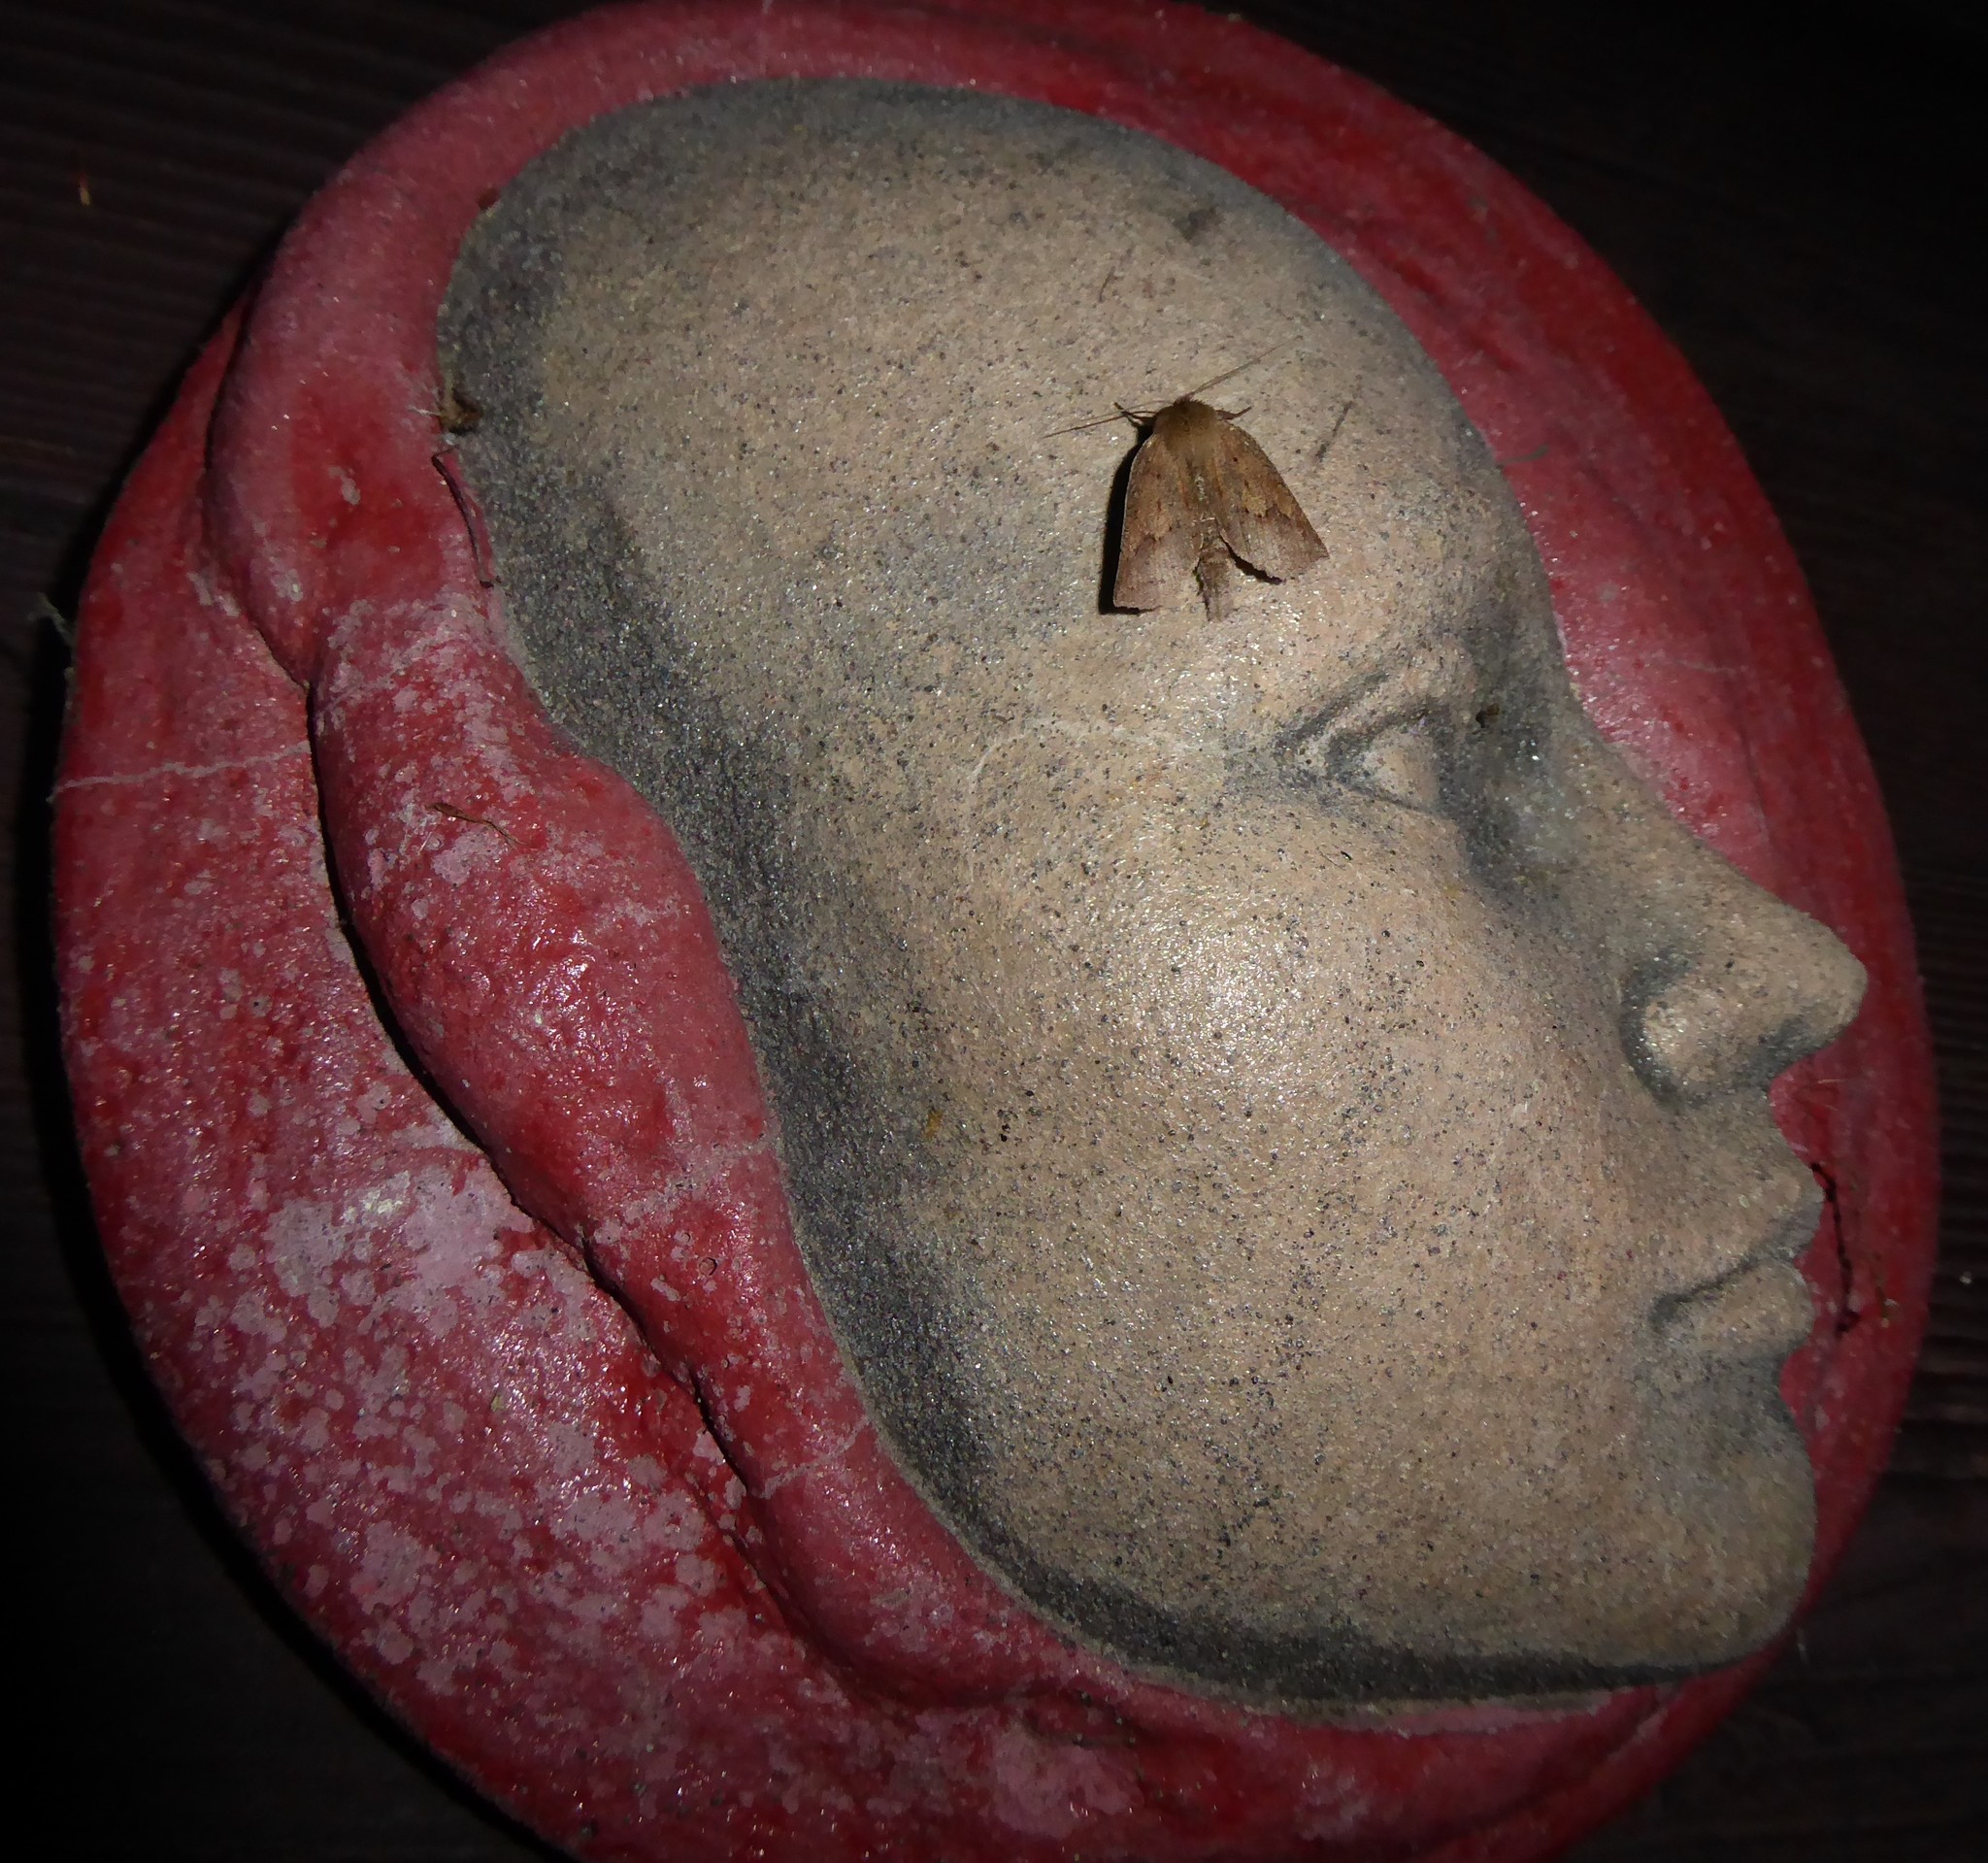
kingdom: Animalia
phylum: Arthropoda
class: Insecta
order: Lepidoptera
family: Geometridae
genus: Declana
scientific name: Declana leptomera
